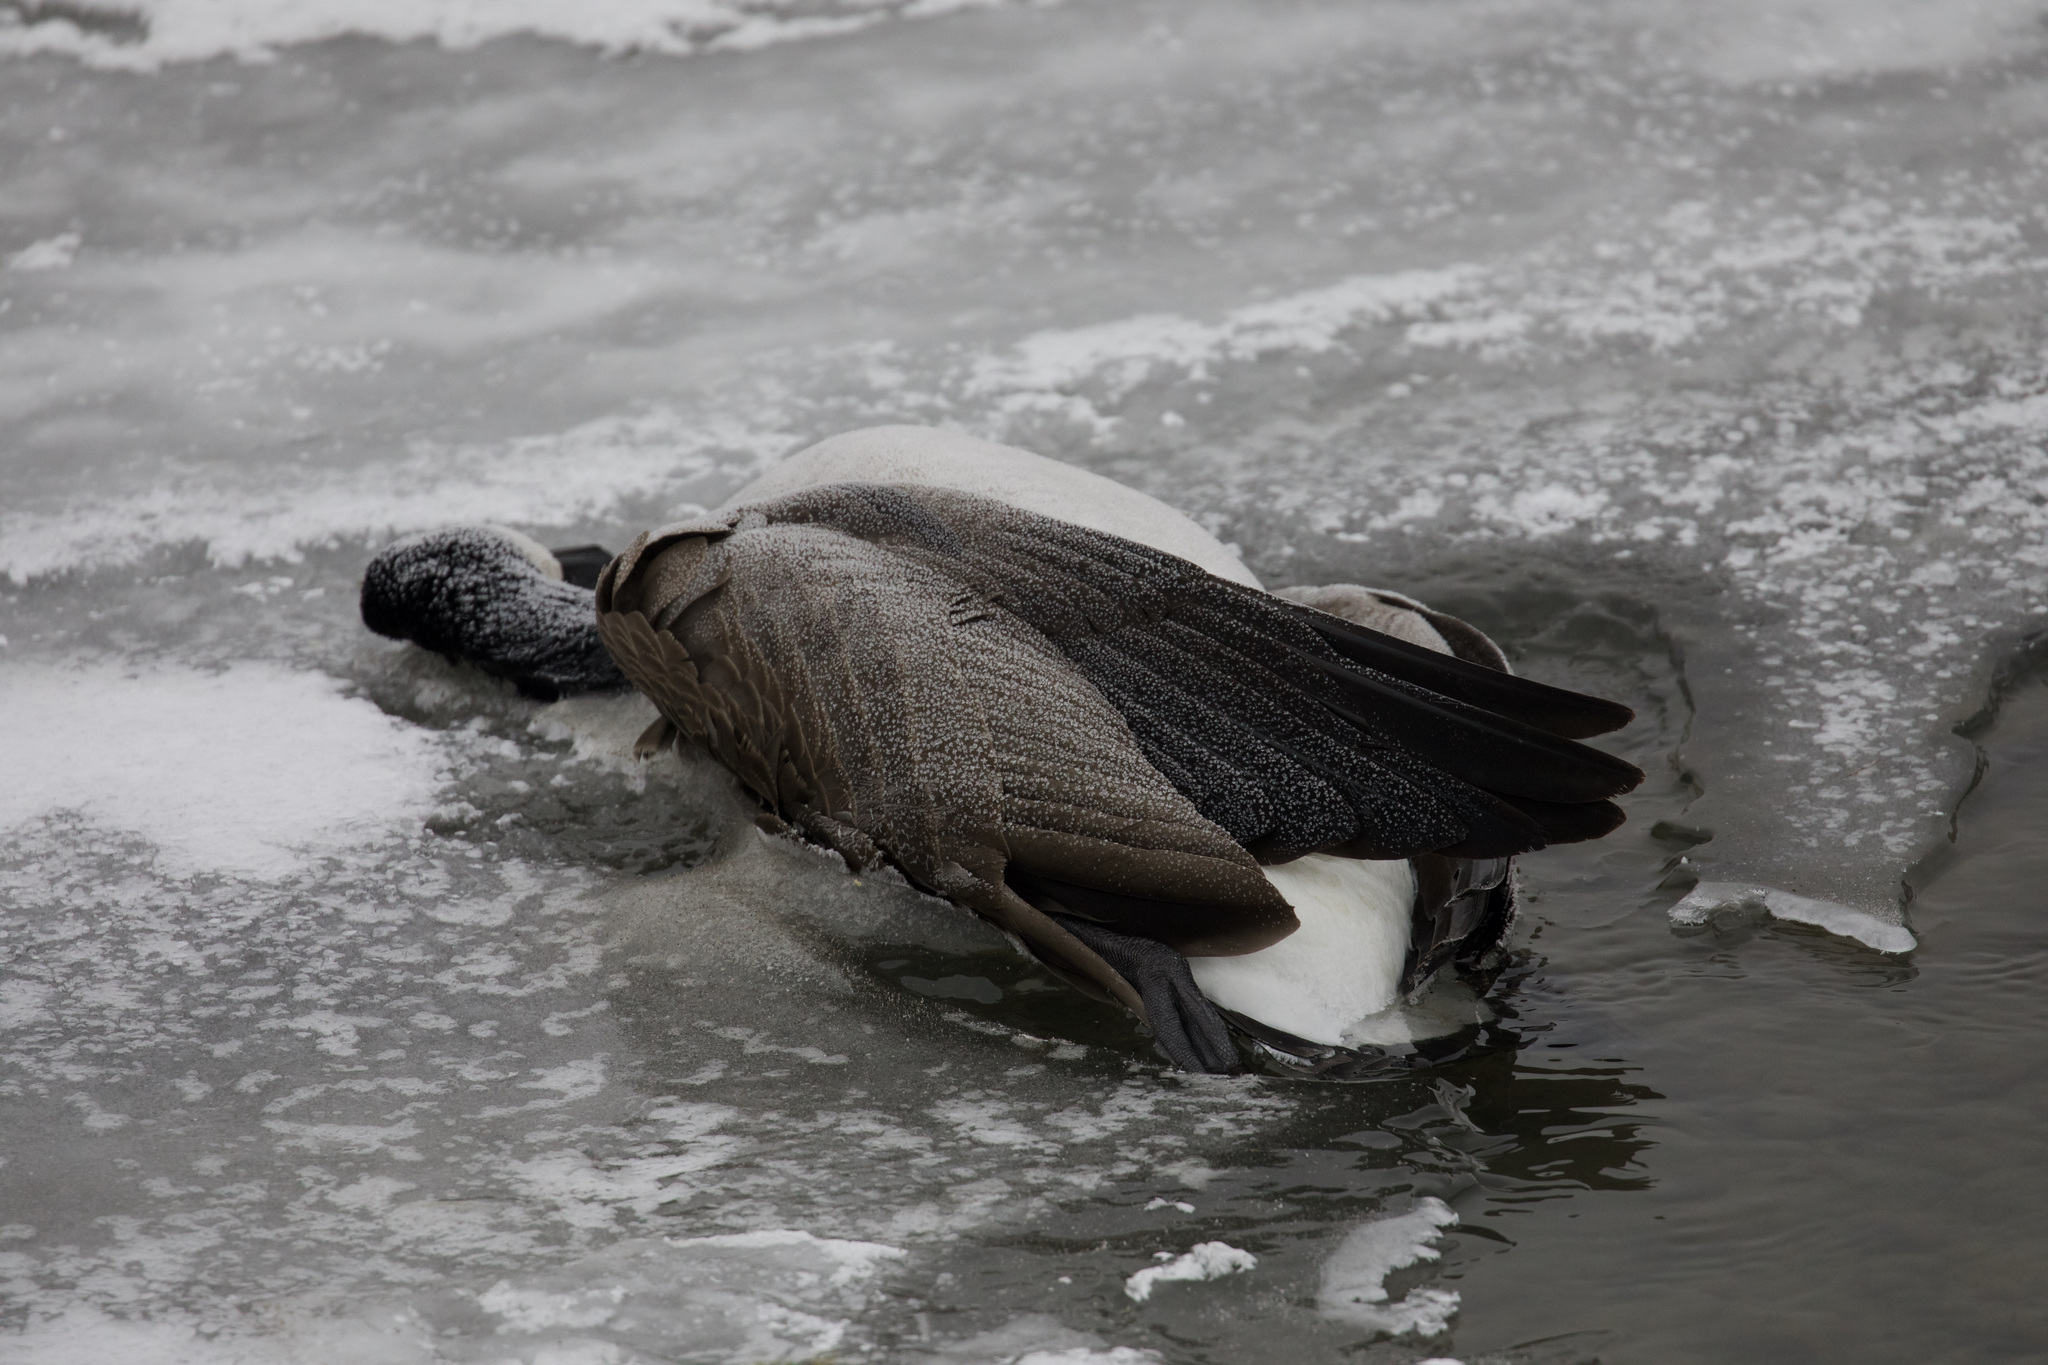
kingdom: Animalia
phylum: Chordata
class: Aves
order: Anseriformes
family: Anatidae
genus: Branta
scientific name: Branta canadensis
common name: Canada goose
